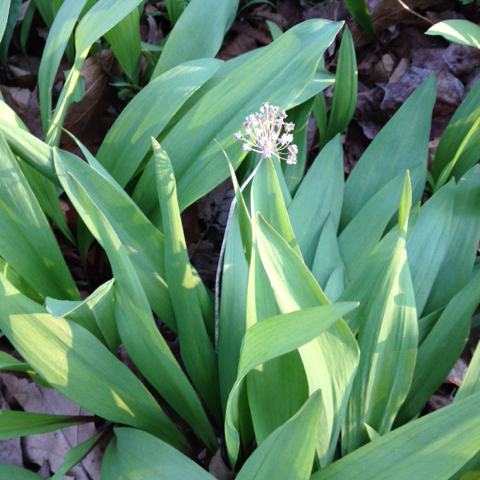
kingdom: Plantae
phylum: Tracheophyta
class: Liliopsida
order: Asparagales
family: Amaryllidaceae
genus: Allium
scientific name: Allium tricoccum
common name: Ramp
